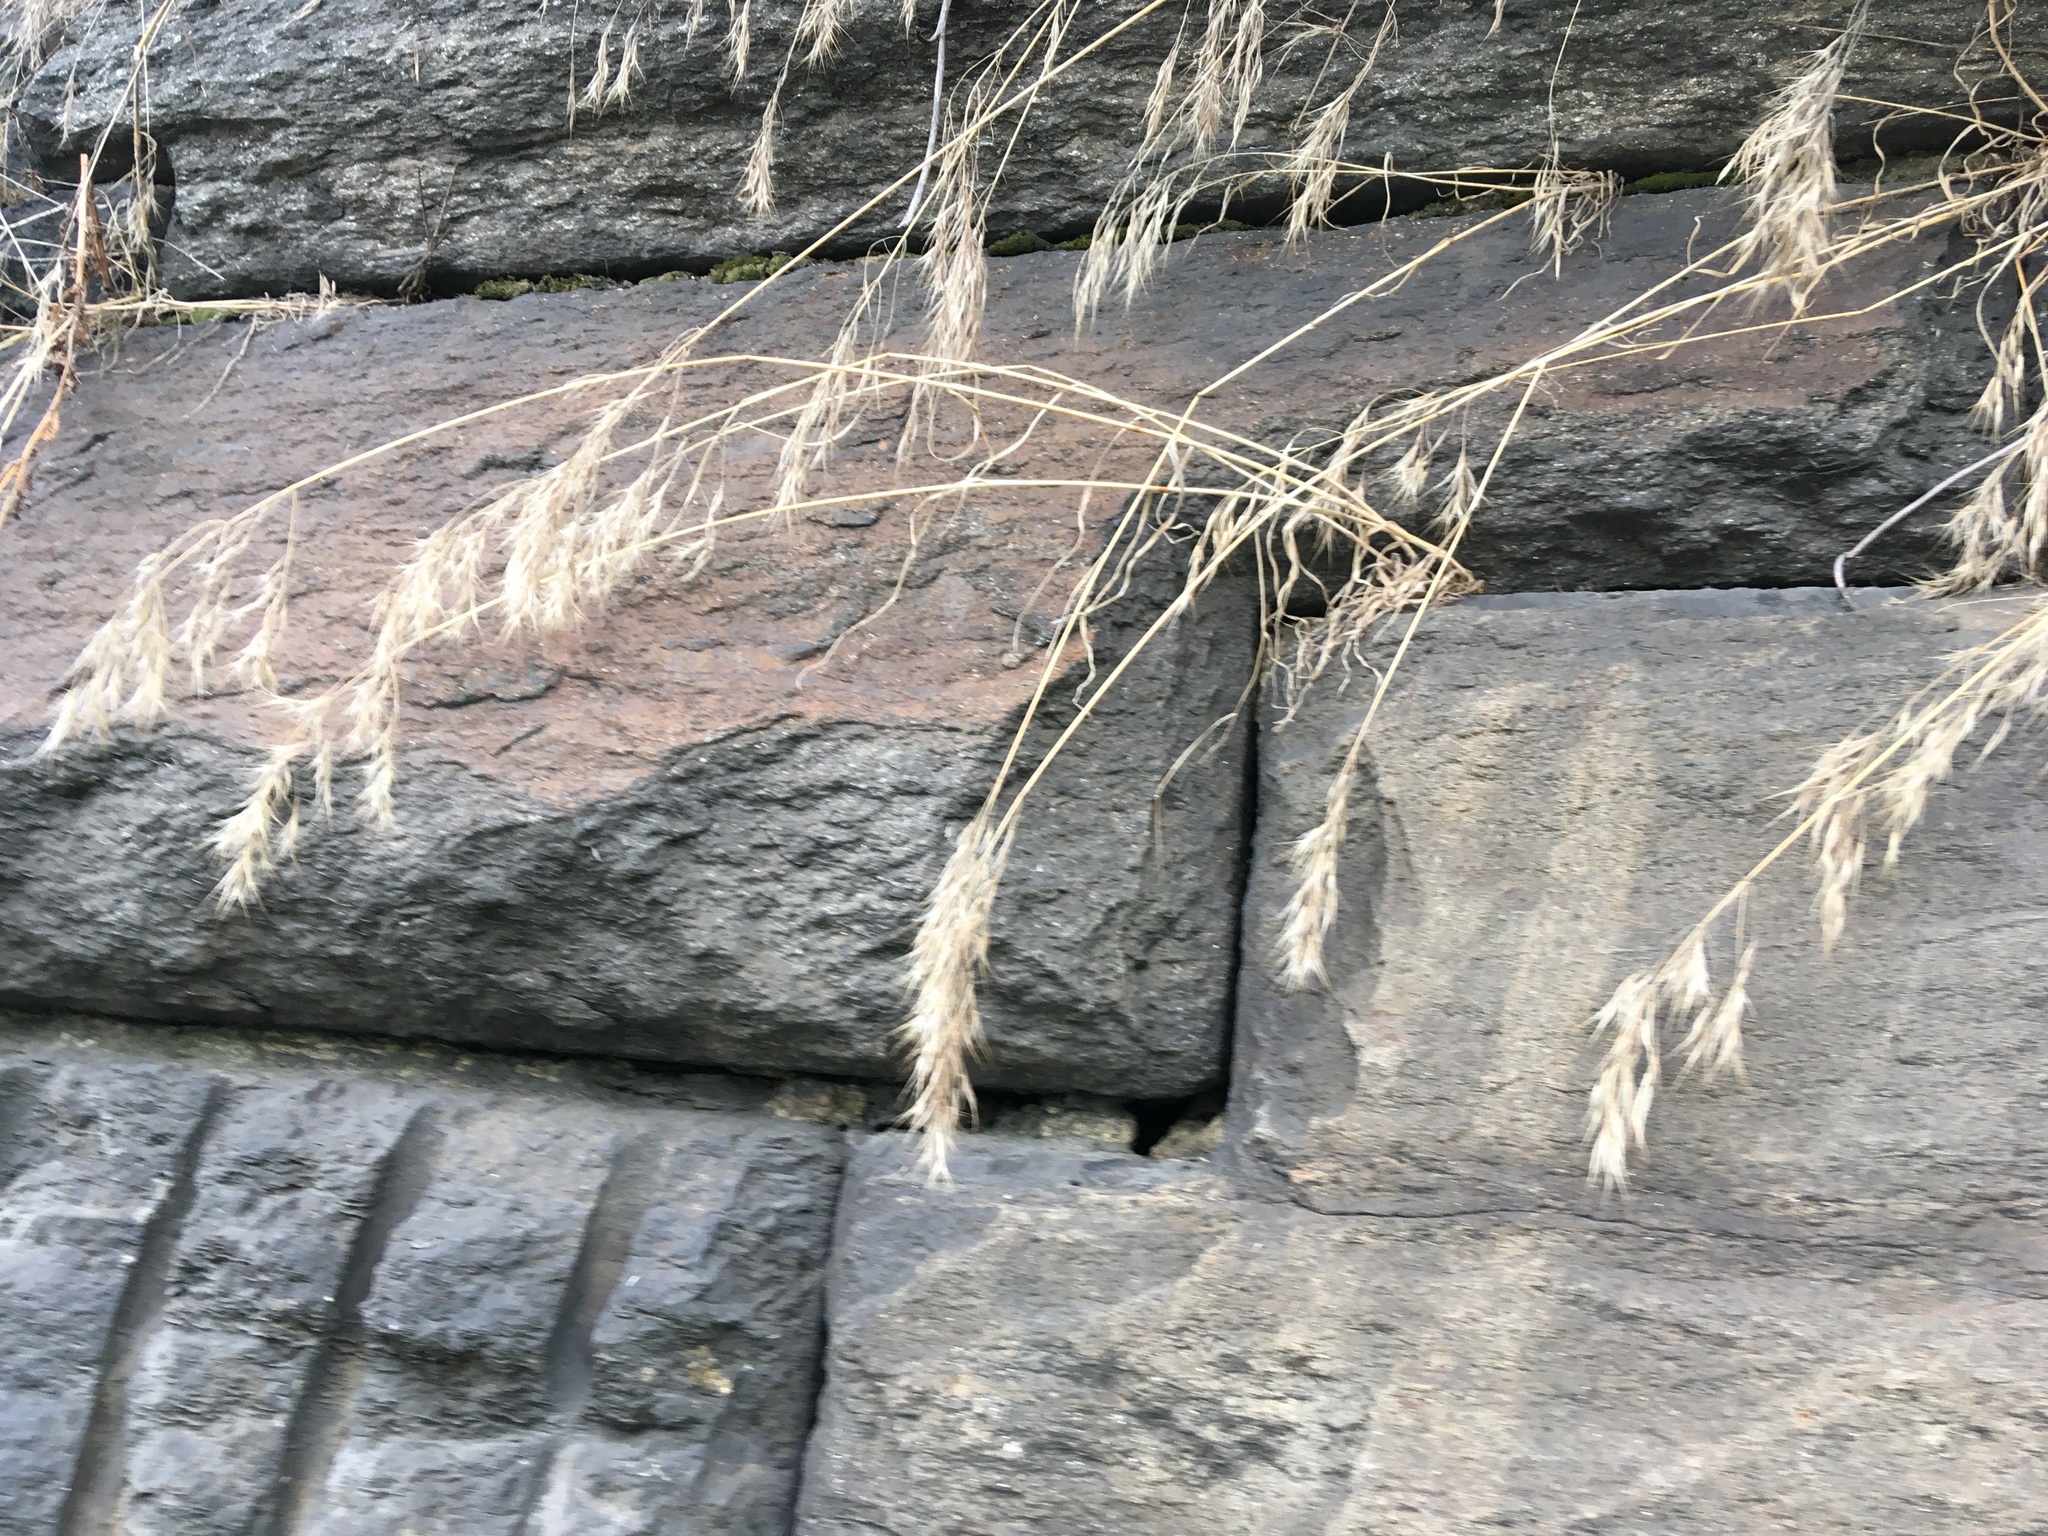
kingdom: Plantae
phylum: Tracheophyta
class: Liliopsida
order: Poales
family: Poaceae
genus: Bromus
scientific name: Bromus tectorum
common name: Cheatgrass
